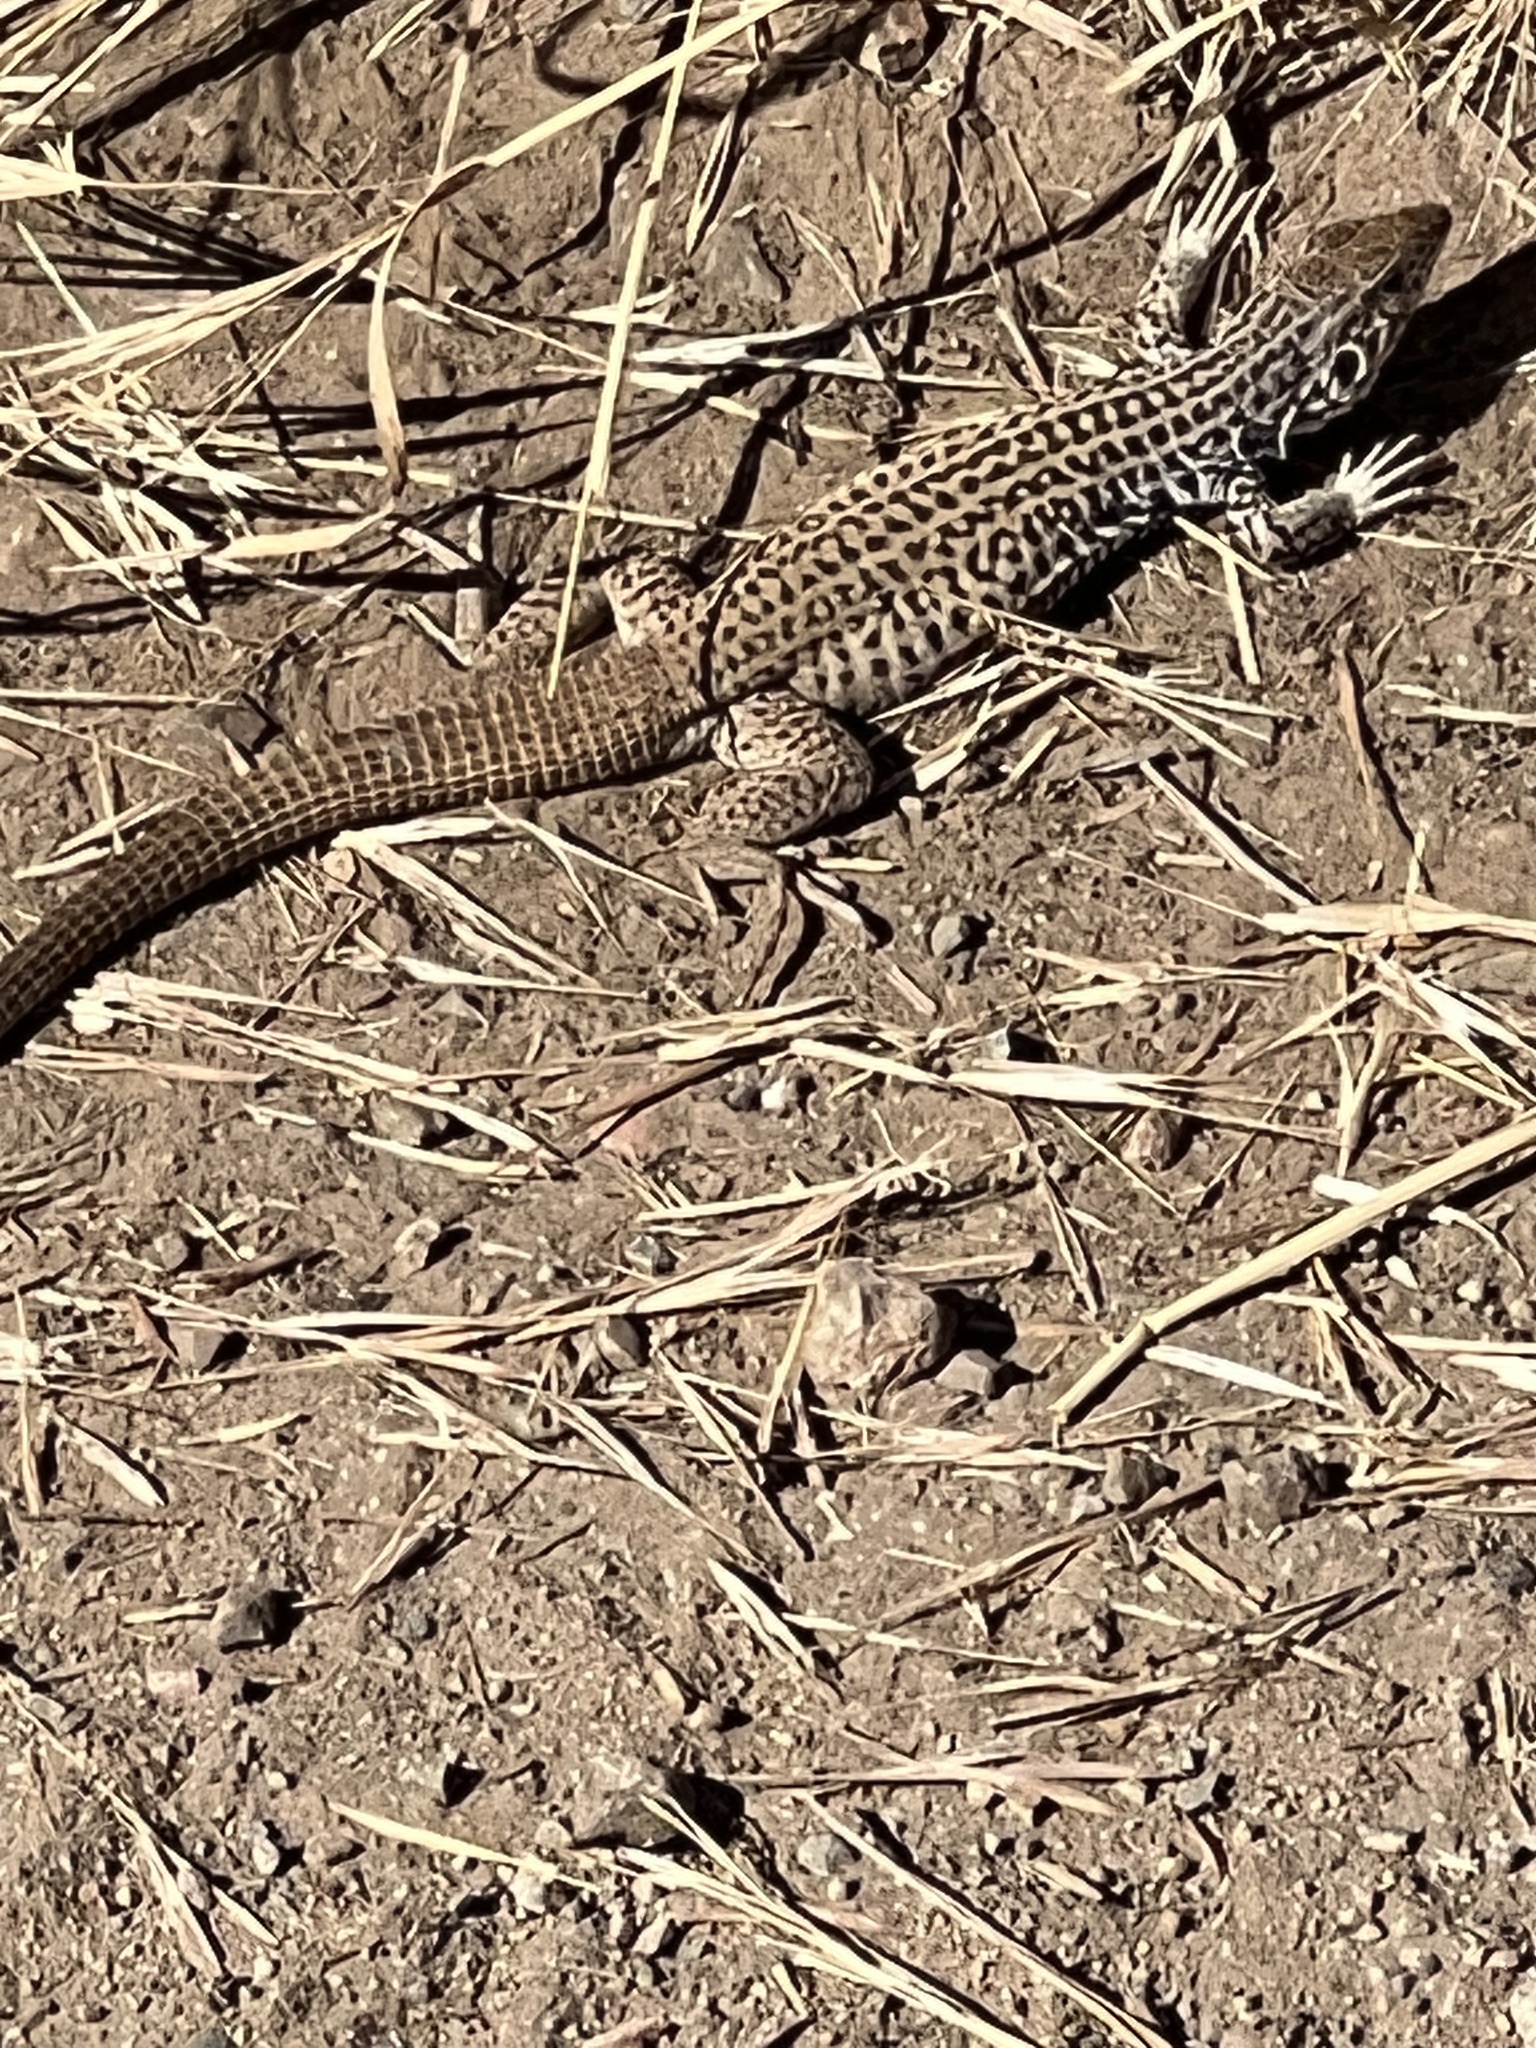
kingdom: Animalia
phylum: Chordata
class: Squamata
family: Teiidae
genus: Aspidoscelis
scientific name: Aspidoscelis tigris
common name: Tiger whiptail
